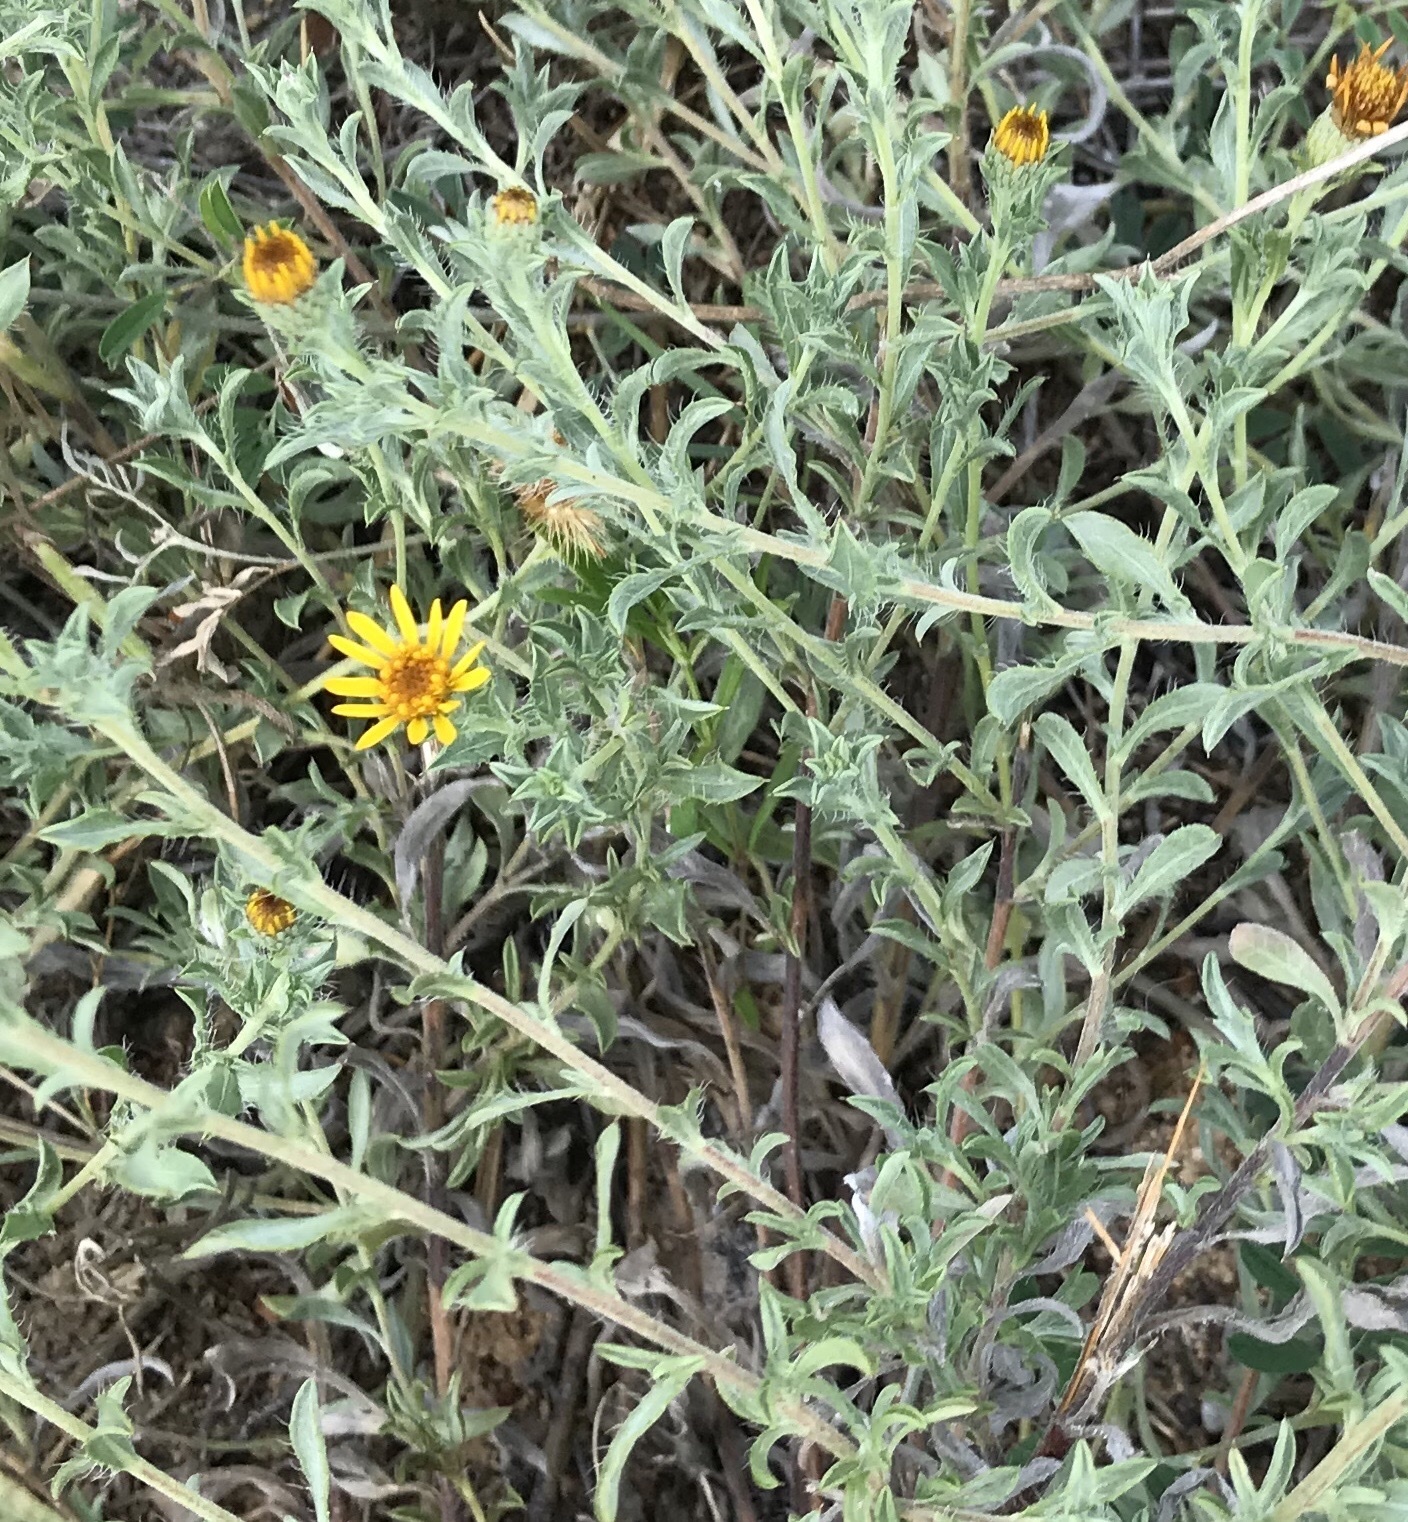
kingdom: Plantae
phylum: Tracheophyta
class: Magnoliopsida
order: Asterales
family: Asteraceae
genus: Heterotheca
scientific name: Heterotheca canescens
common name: Hoary golden-aster
